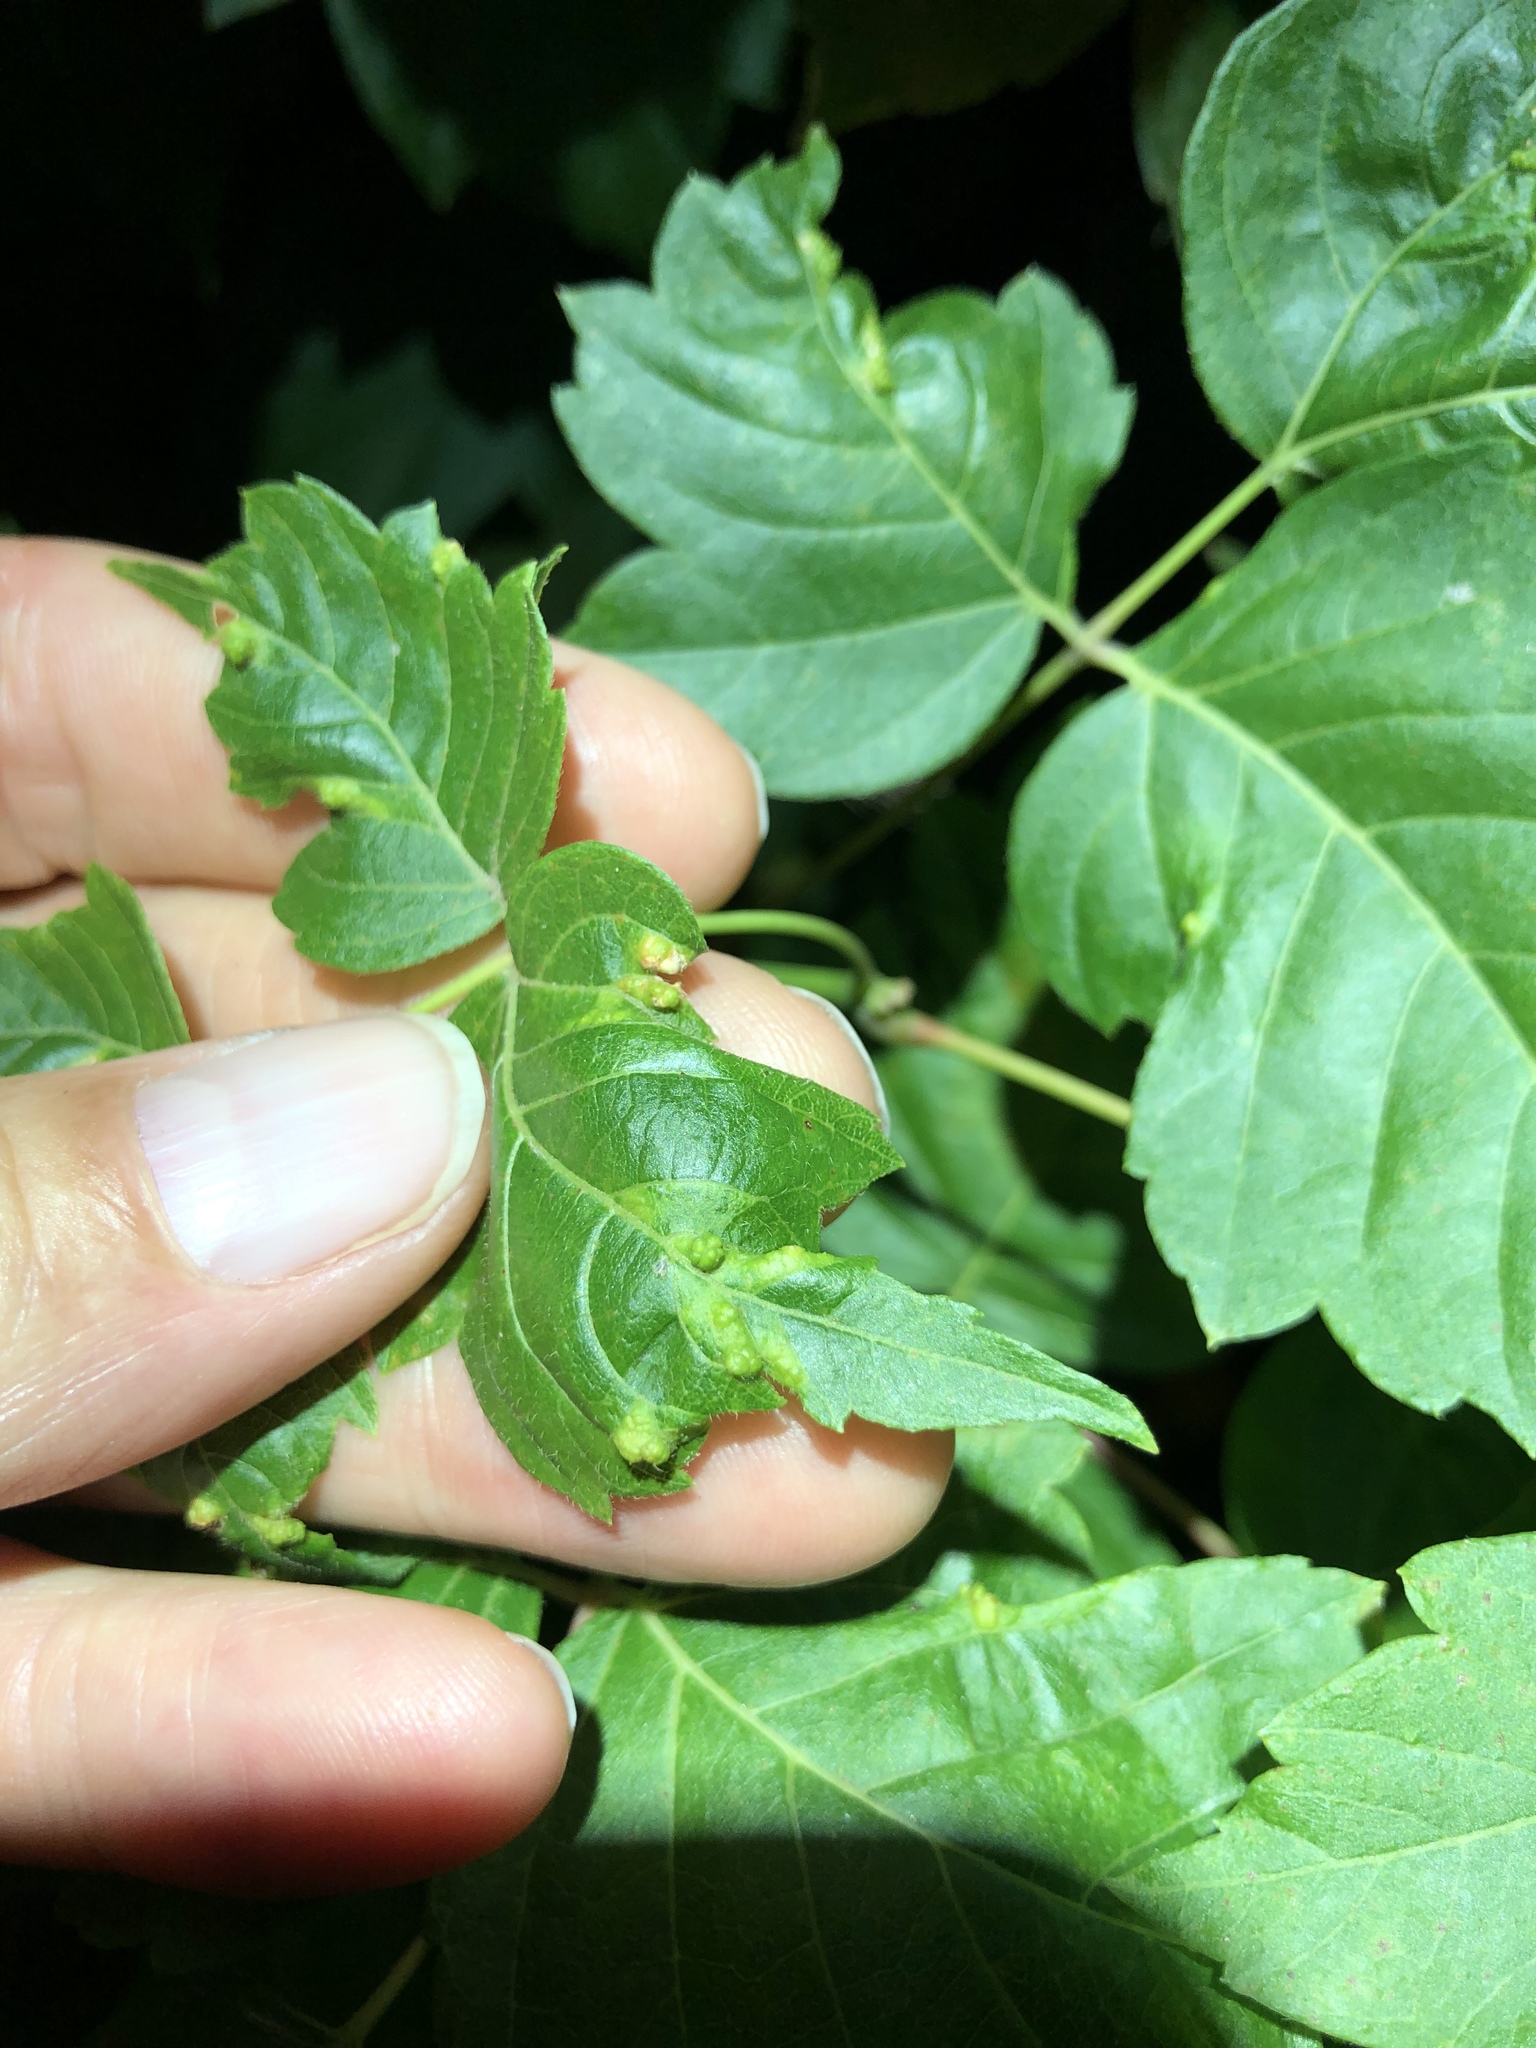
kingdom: Animalia
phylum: Arthropoda
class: Arachnida
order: Trombidiformes
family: Eriophyidae
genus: Aceria
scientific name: Aceria
